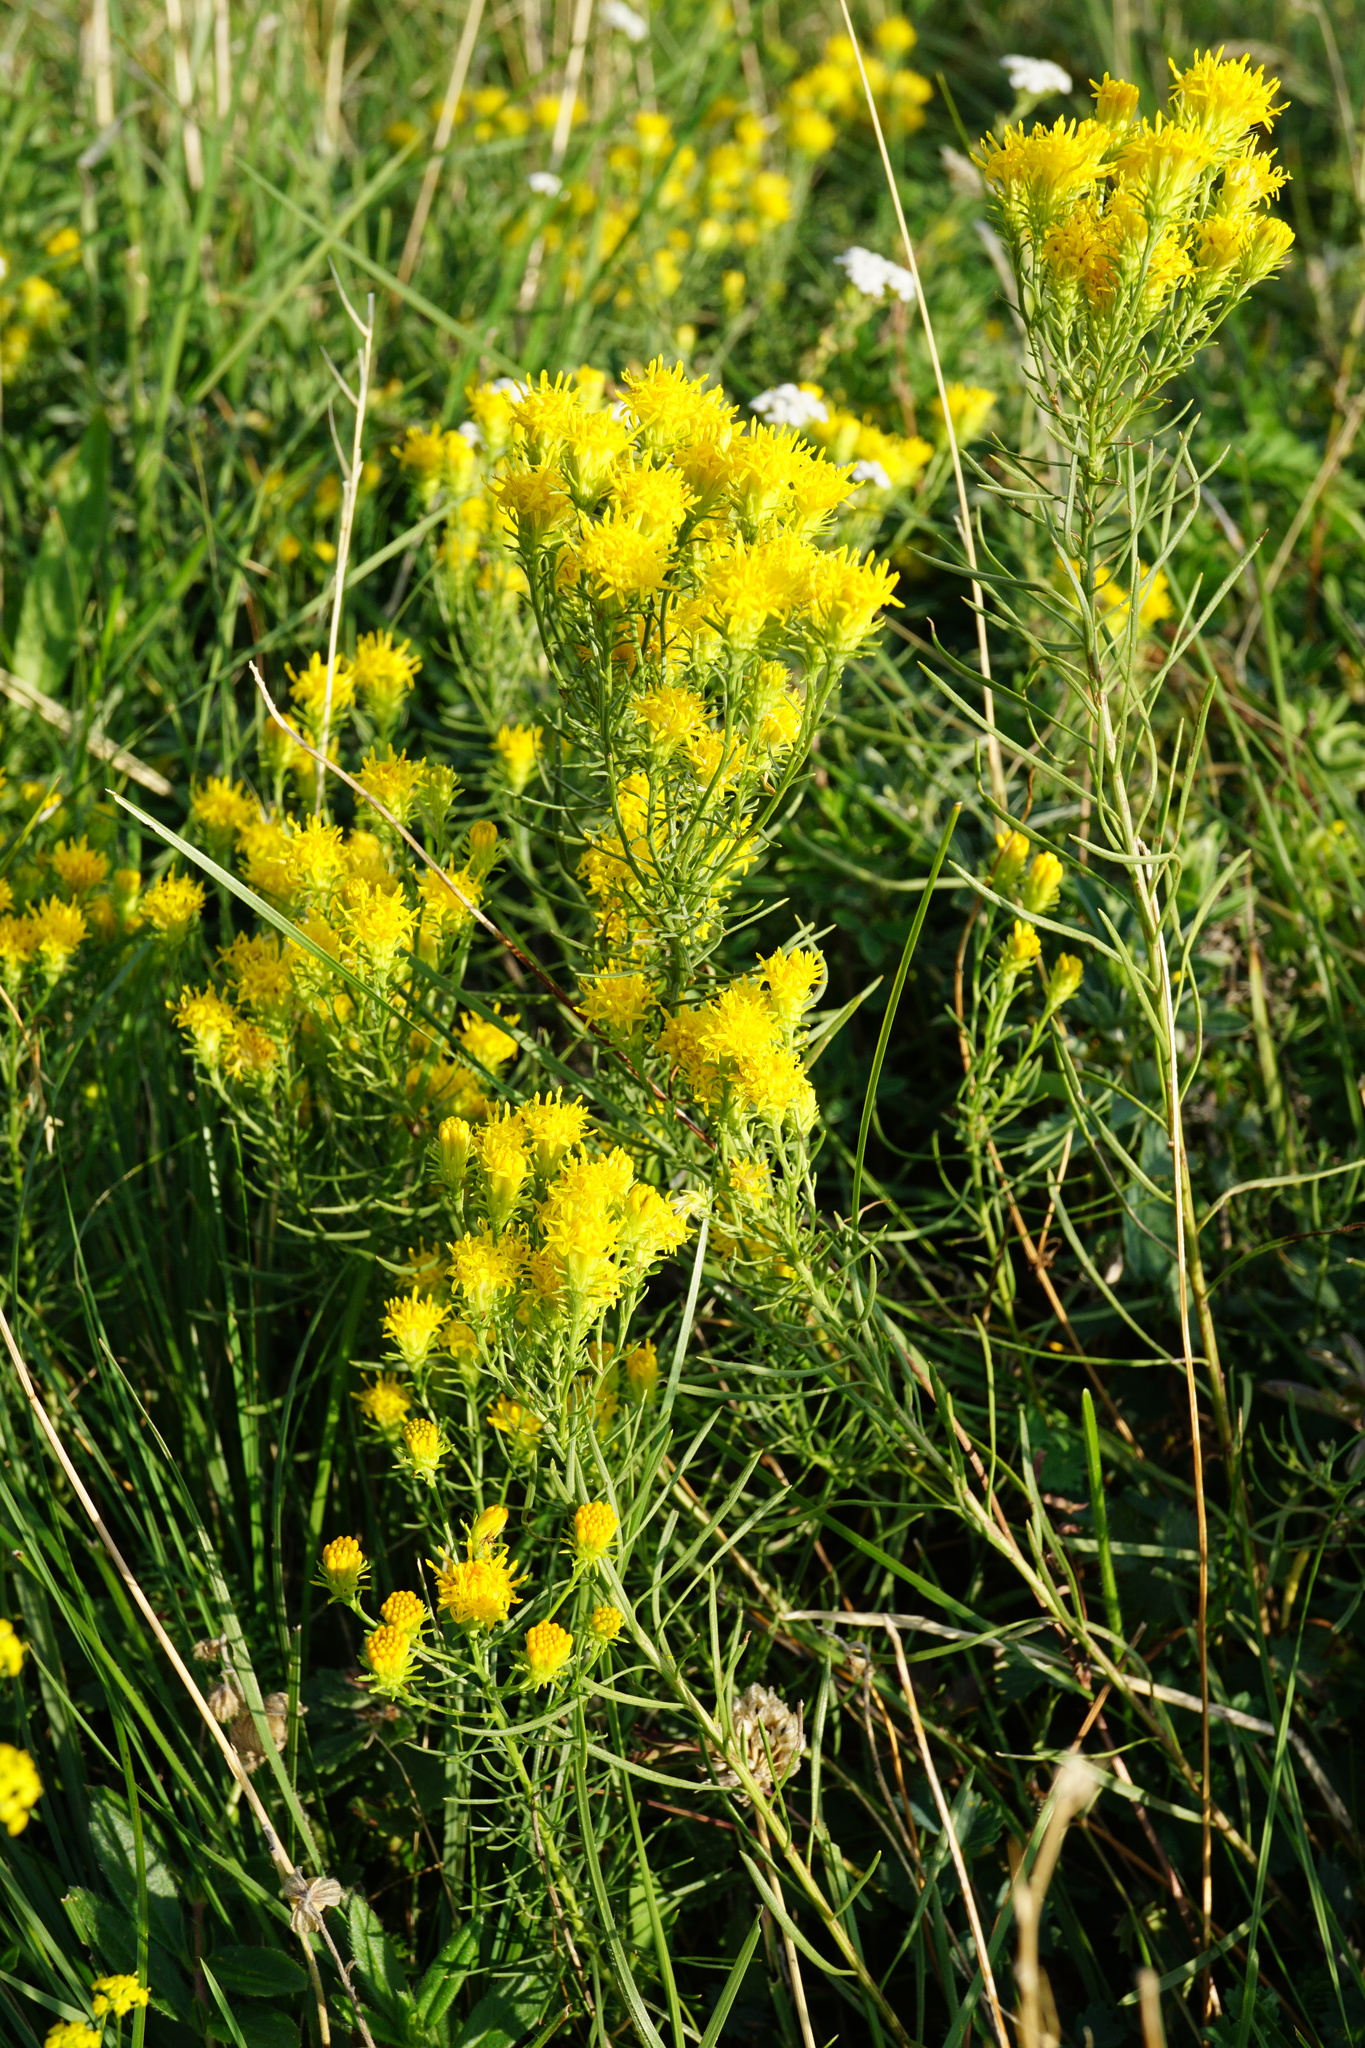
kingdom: Plantae
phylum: Tracheophyta
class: Magnoliopsida
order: Asterales
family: Asteraceae
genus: Galatella
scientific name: Galatella linosyris
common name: Goldilocks aster
